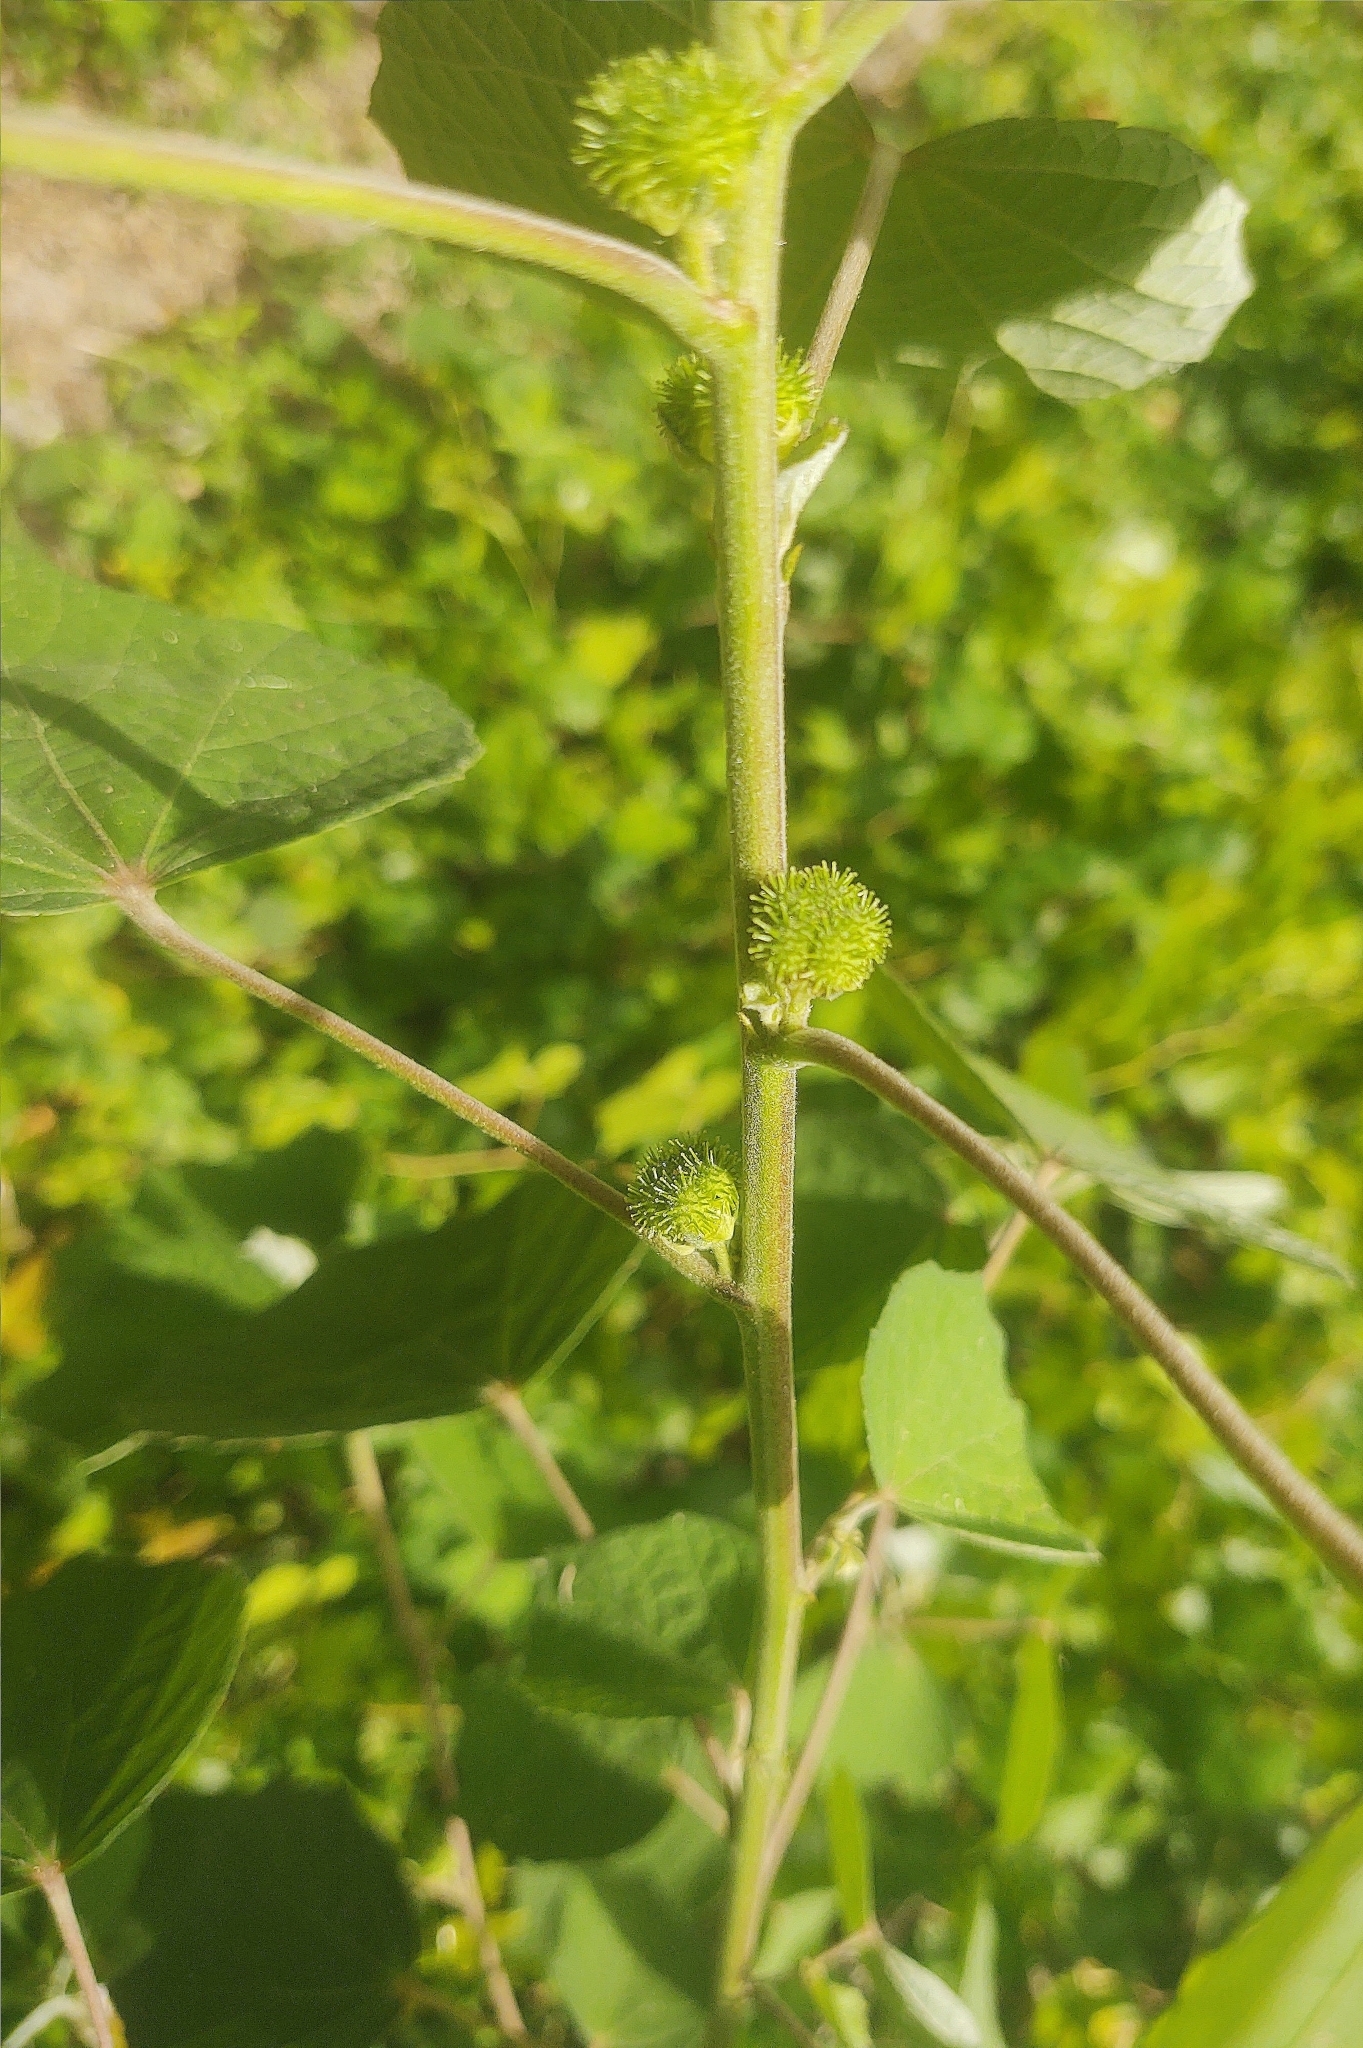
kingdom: Plantae
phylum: Tracheophyta
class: Magnoliopsida
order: Malvales
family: Malvaceae
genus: Urena
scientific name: Urena lobata
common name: Caesarweed
